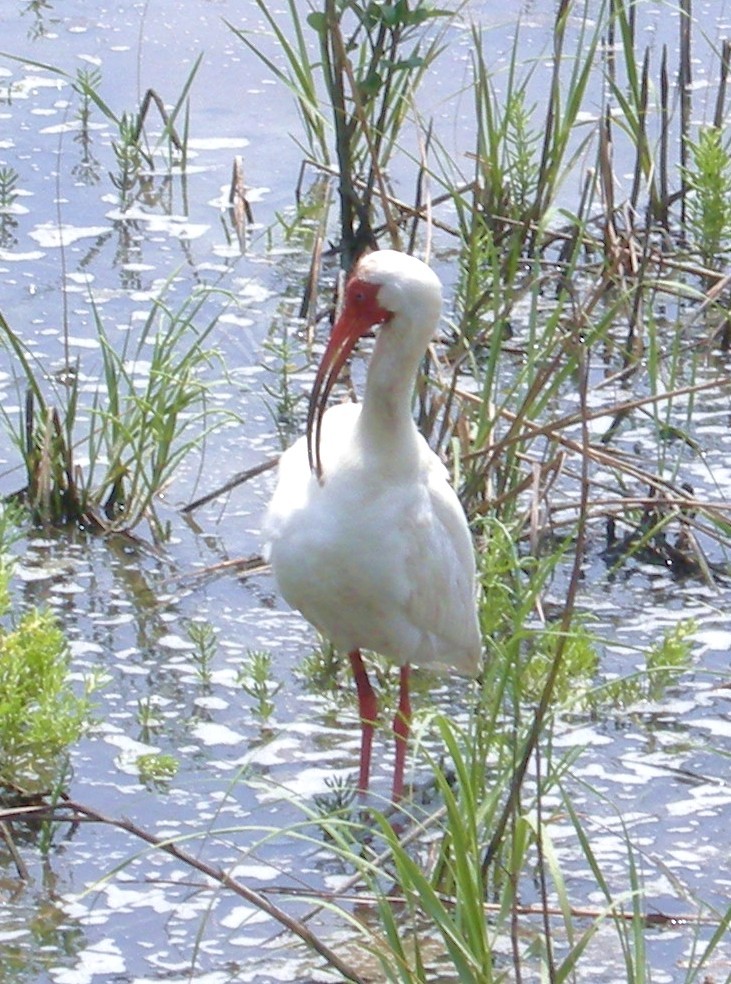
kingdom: Animalia
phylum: Chordata
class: Aves
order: Pelecaniformes
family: Threskiornithidae
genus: Eudocimus
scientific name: Eudocimus albus
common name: White ibis
